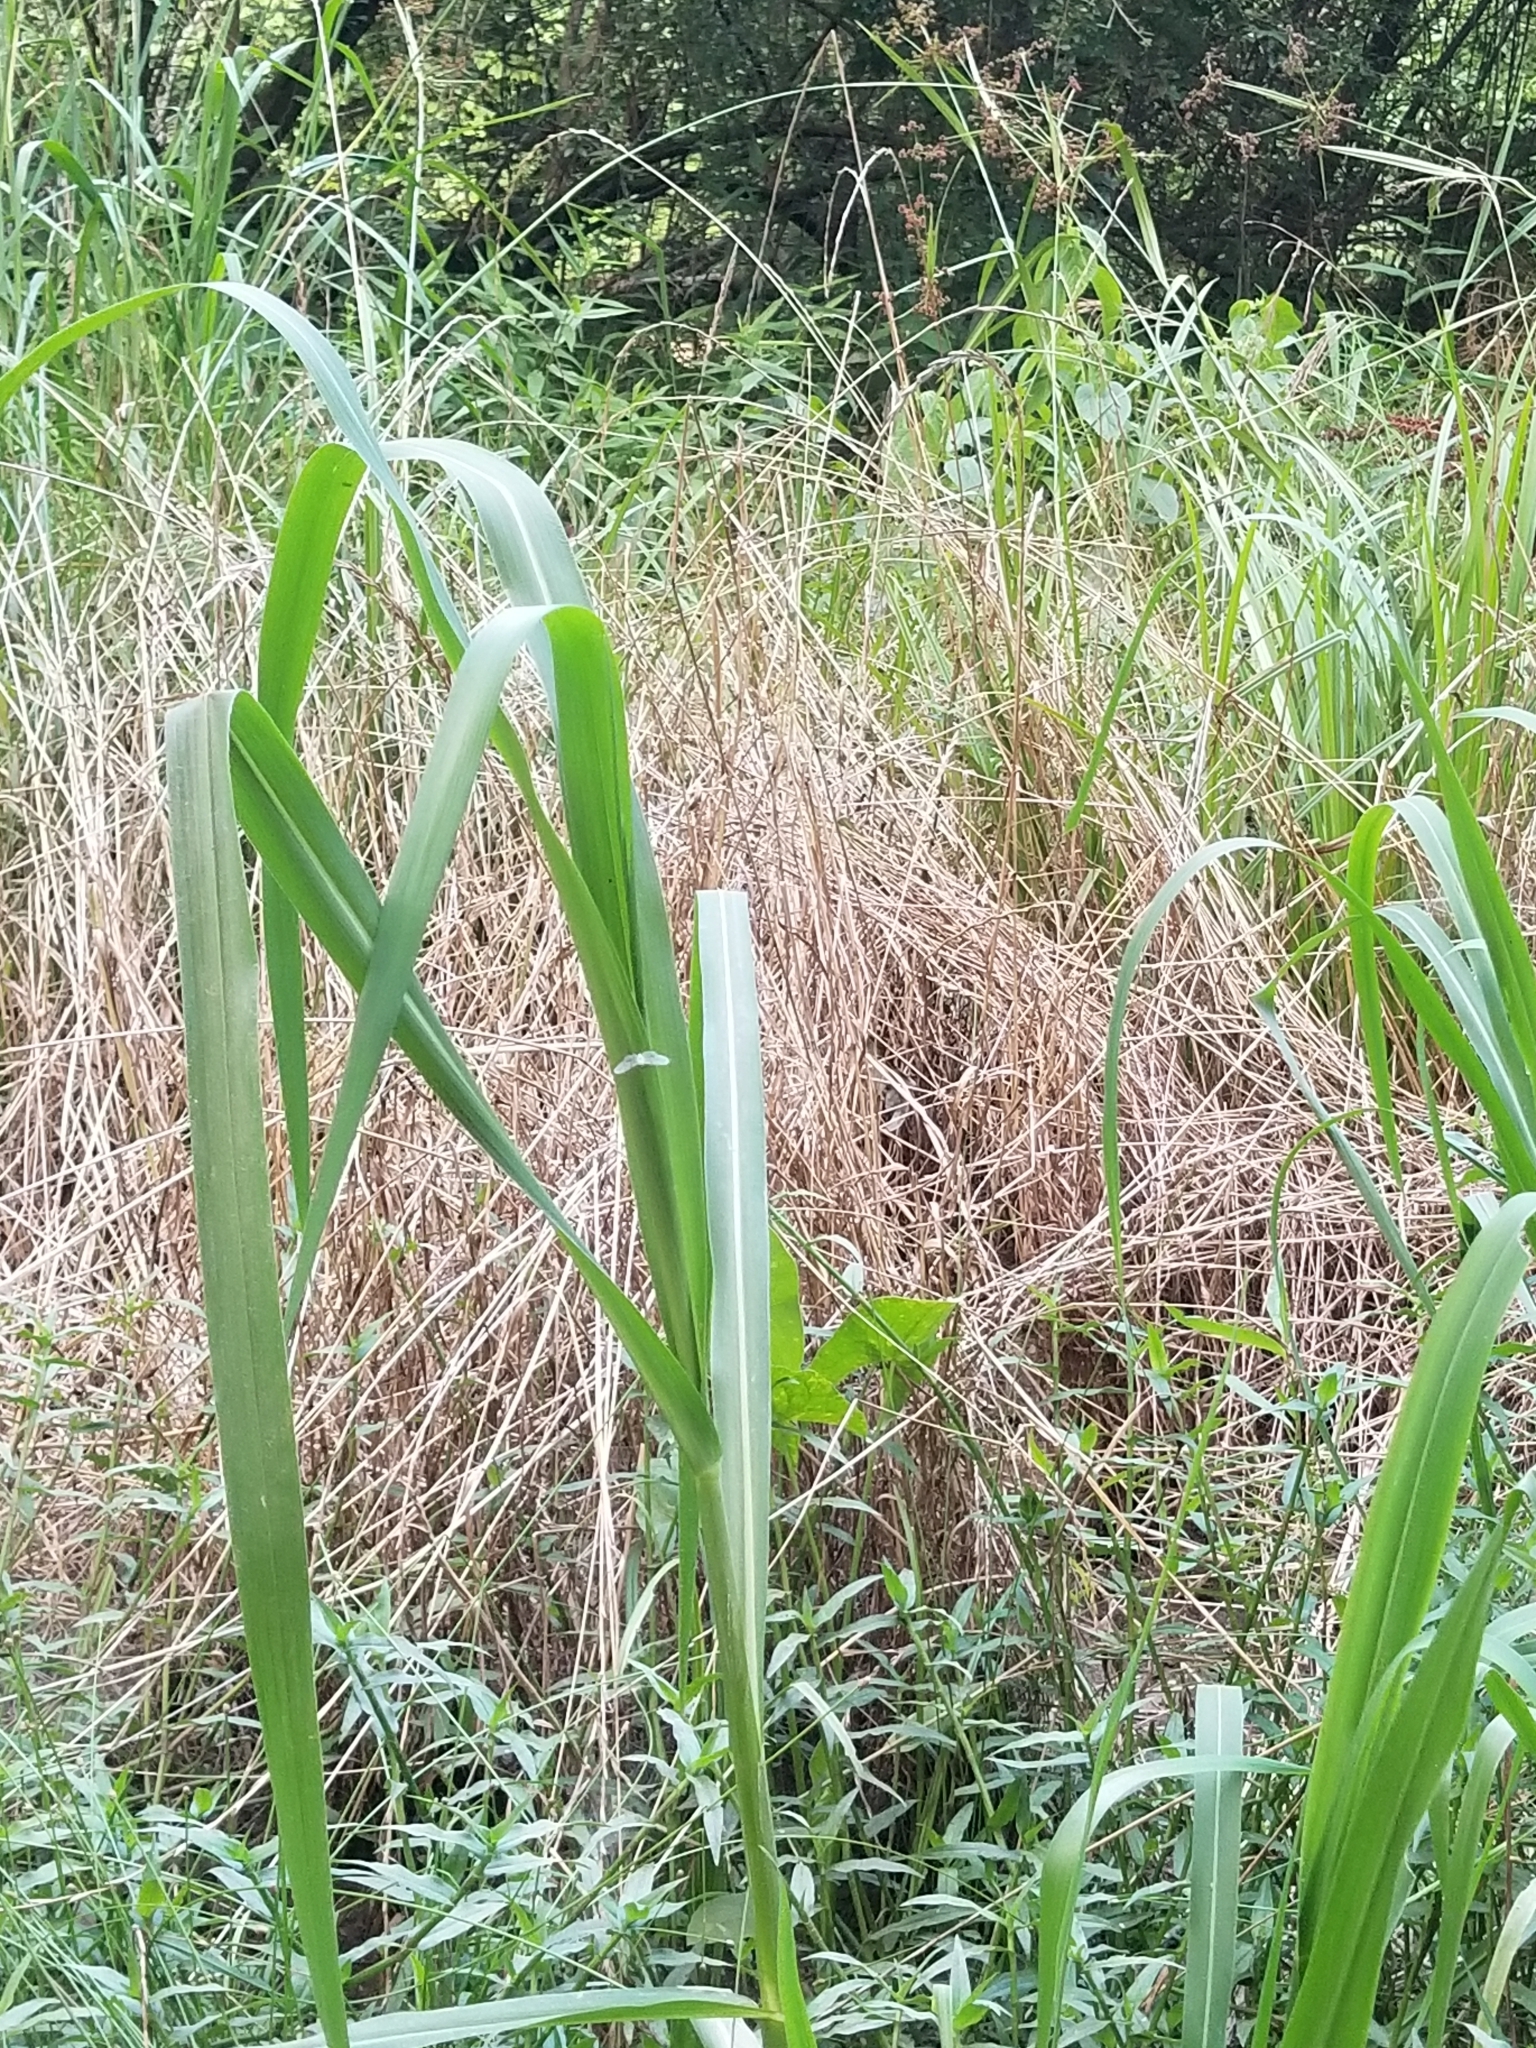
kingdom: Animalia
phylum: Arthropoda
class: Insecta
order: Hemiptera
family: Derbidae
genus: Paramysidia
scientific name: Paramysidia mississippiensis
